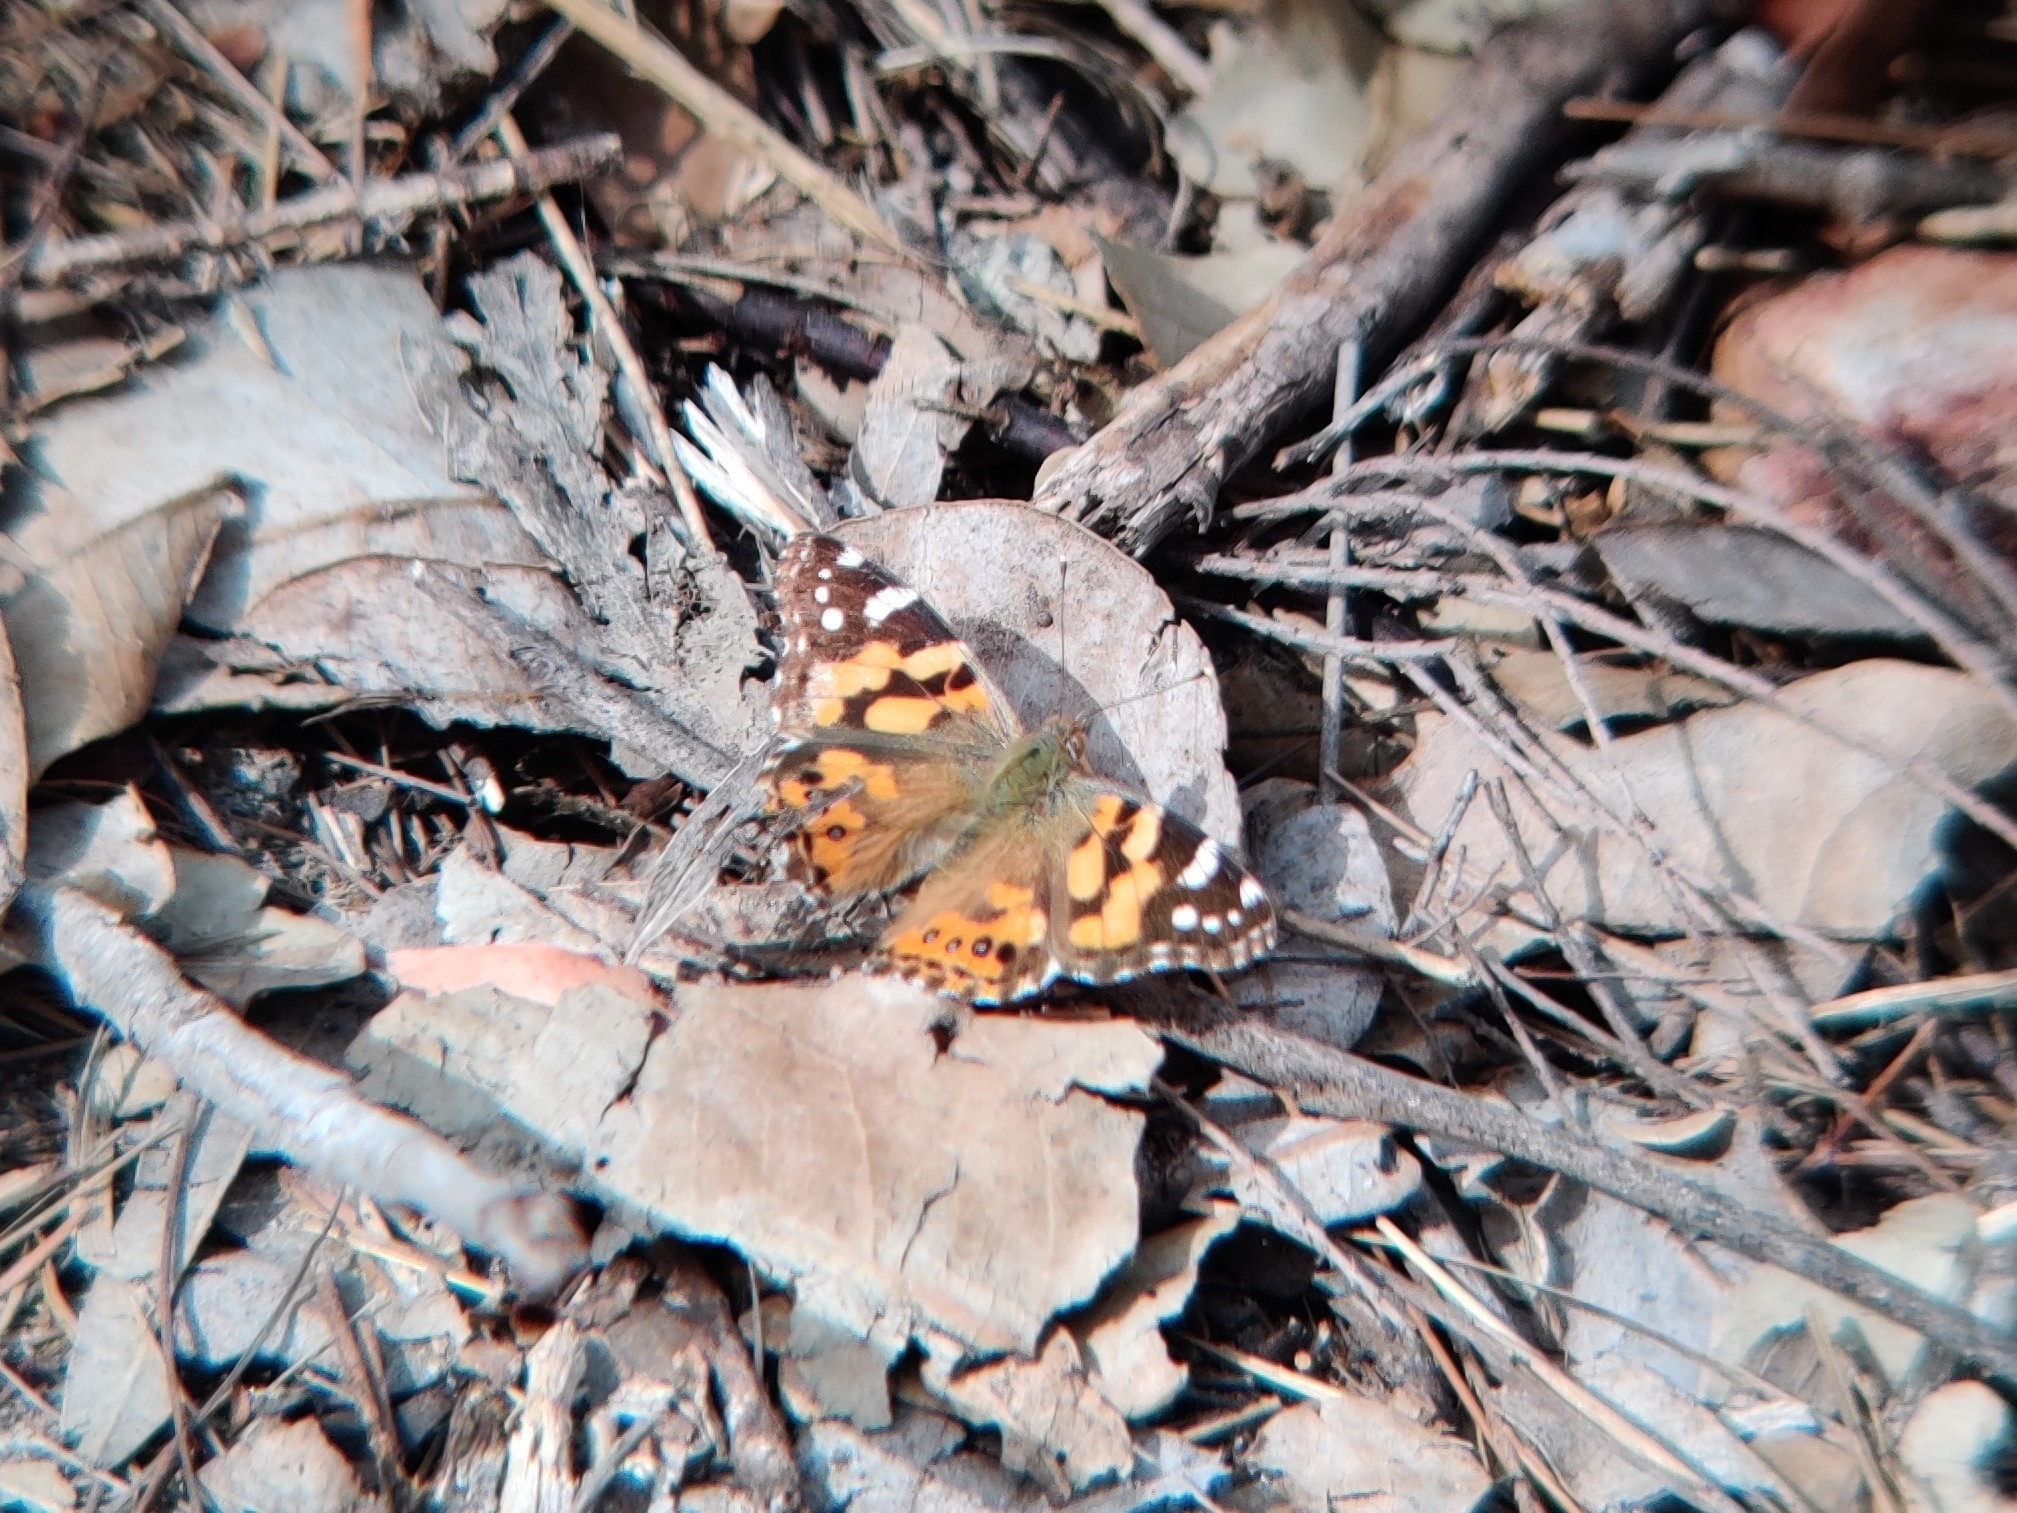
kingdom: Animalia
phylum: Arthropoda
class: Insecta
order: Lepidoptera
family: Nymphalidae
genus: Vanessa
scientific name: Vanessa kershawi
